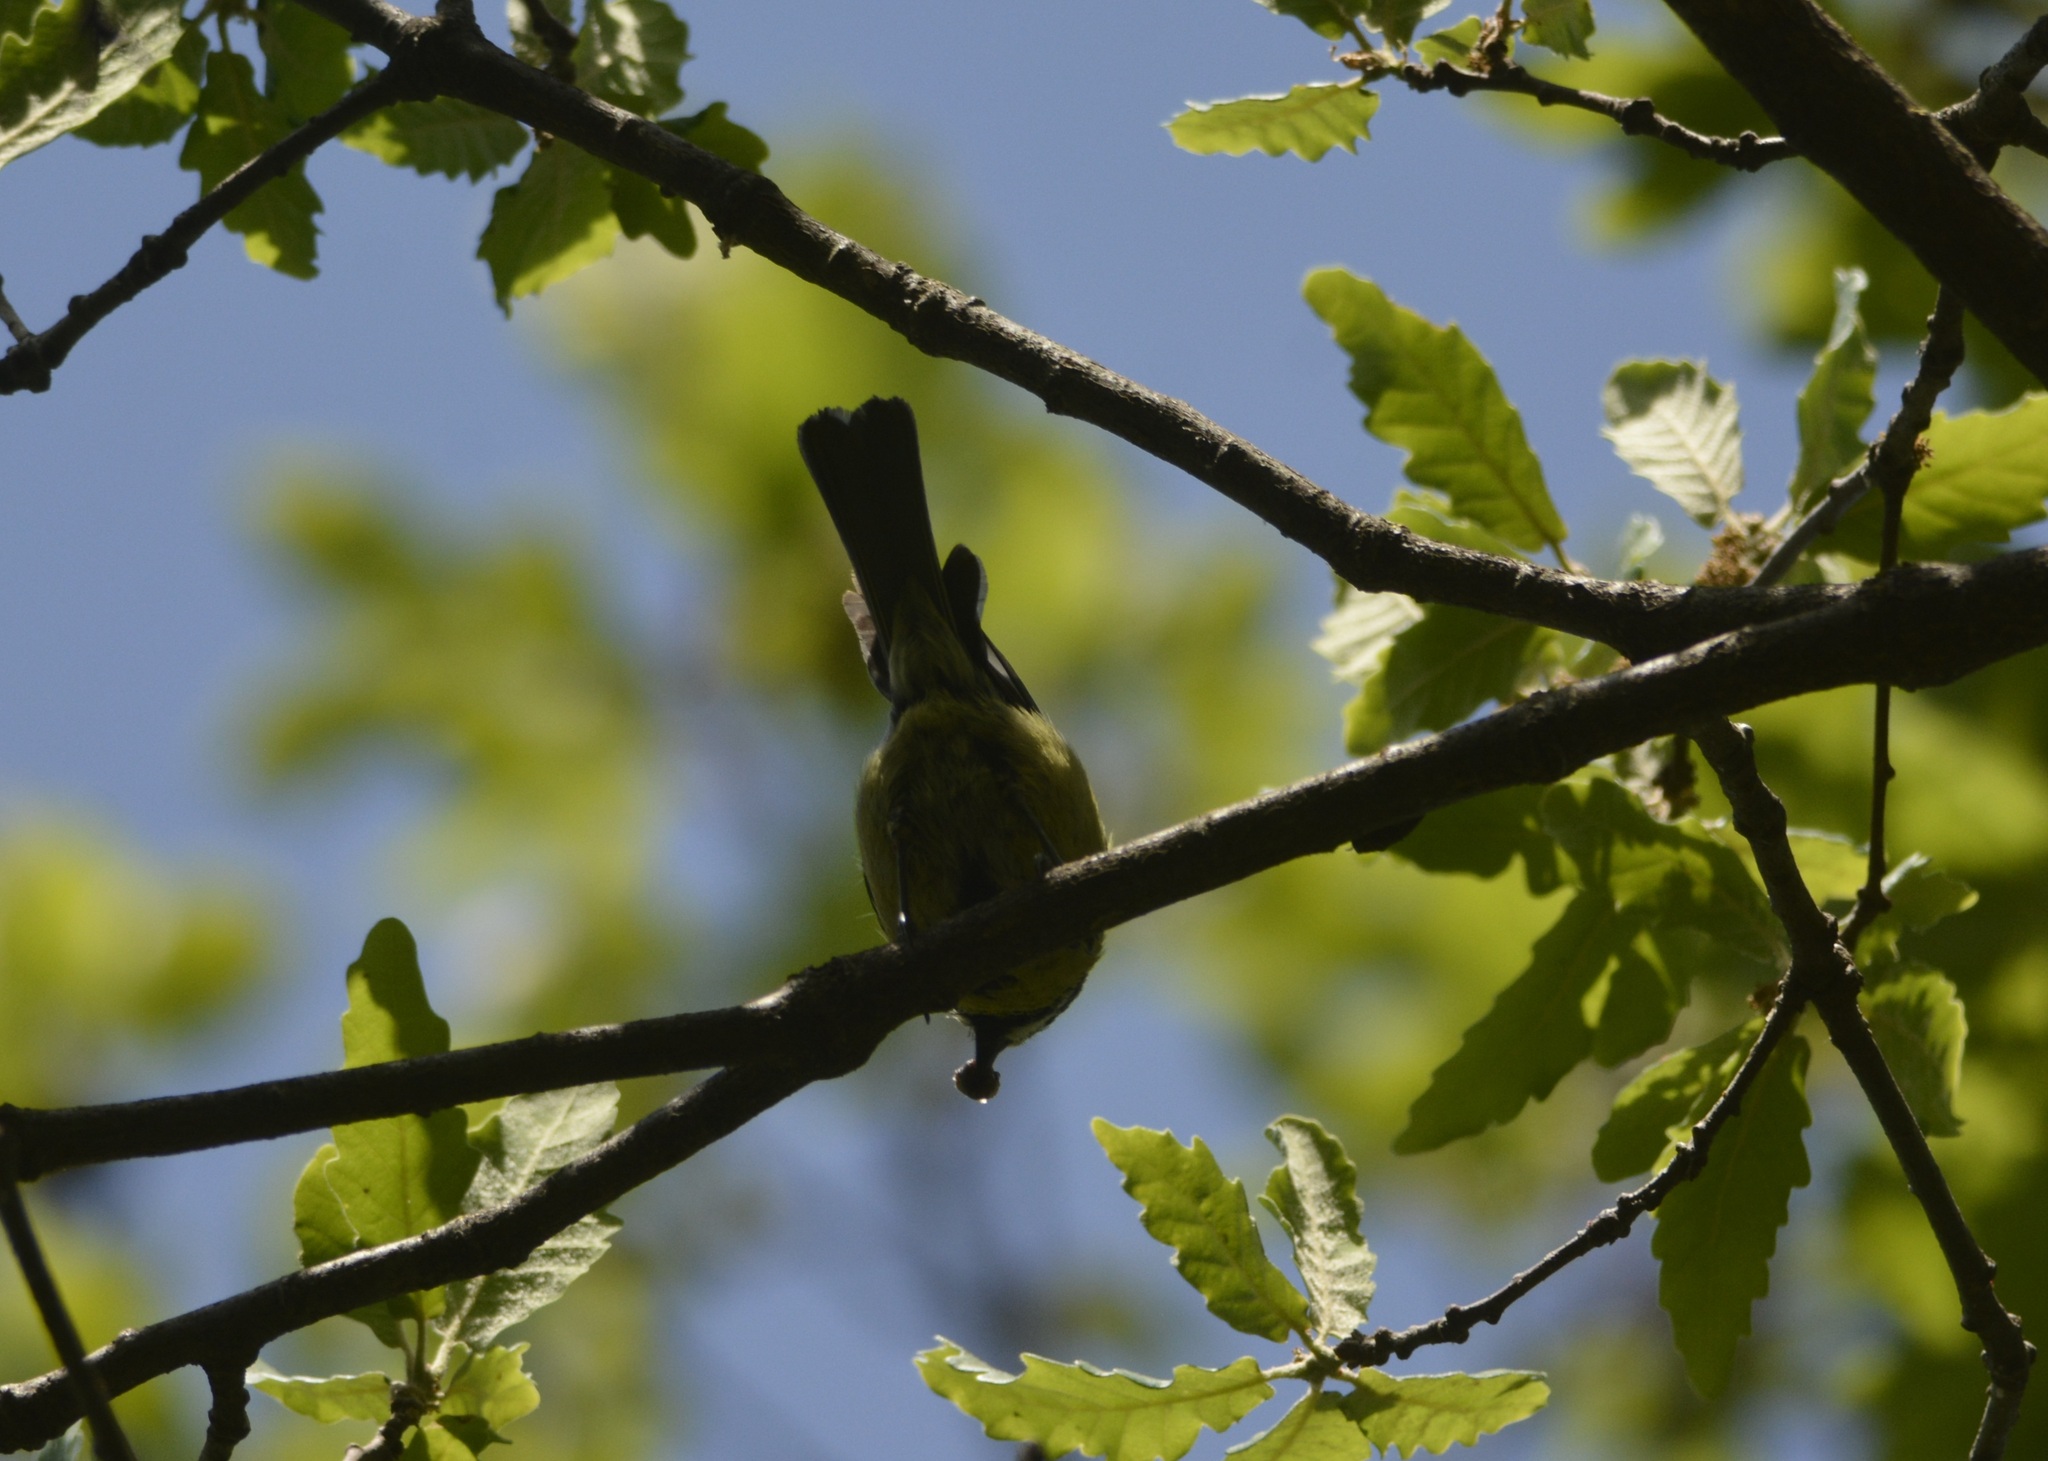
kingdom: Animalia
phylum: Chordata
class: Aves
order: Passeriformes
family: Paridae
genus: Parus
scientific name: Parus major
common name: Great tit
